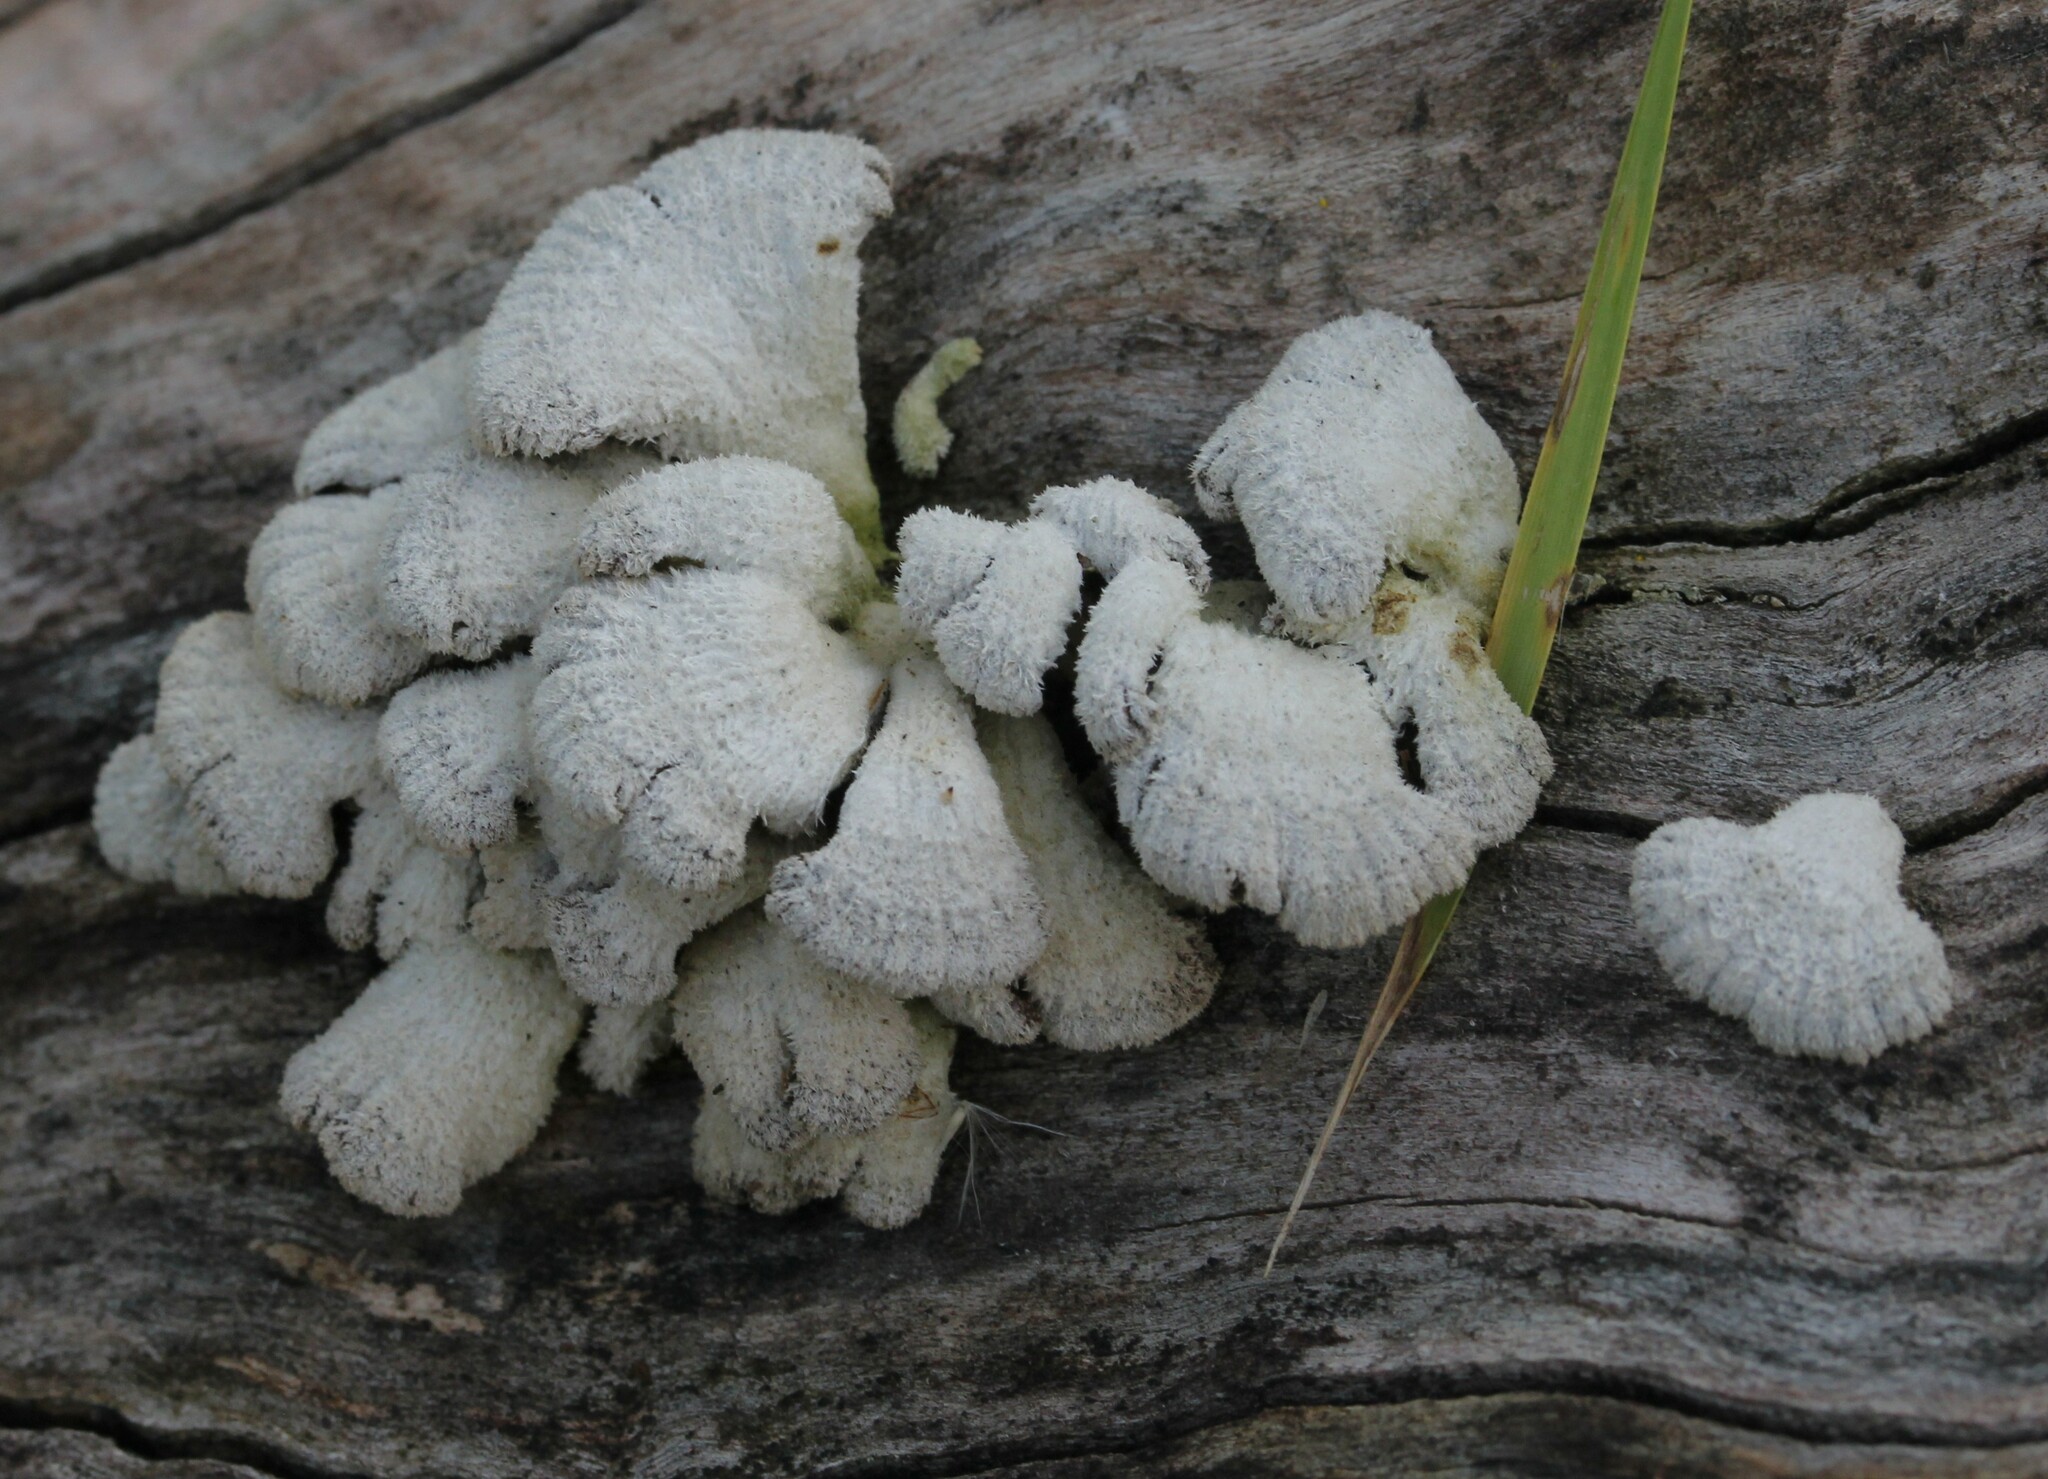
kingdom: Fungi
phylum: Basidiomycota
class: Agaricomycetes
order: Agaricales
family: Schizophyllaceae
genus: Schizophyllum
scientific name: Schizophyllum commune
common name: Common porecrust
